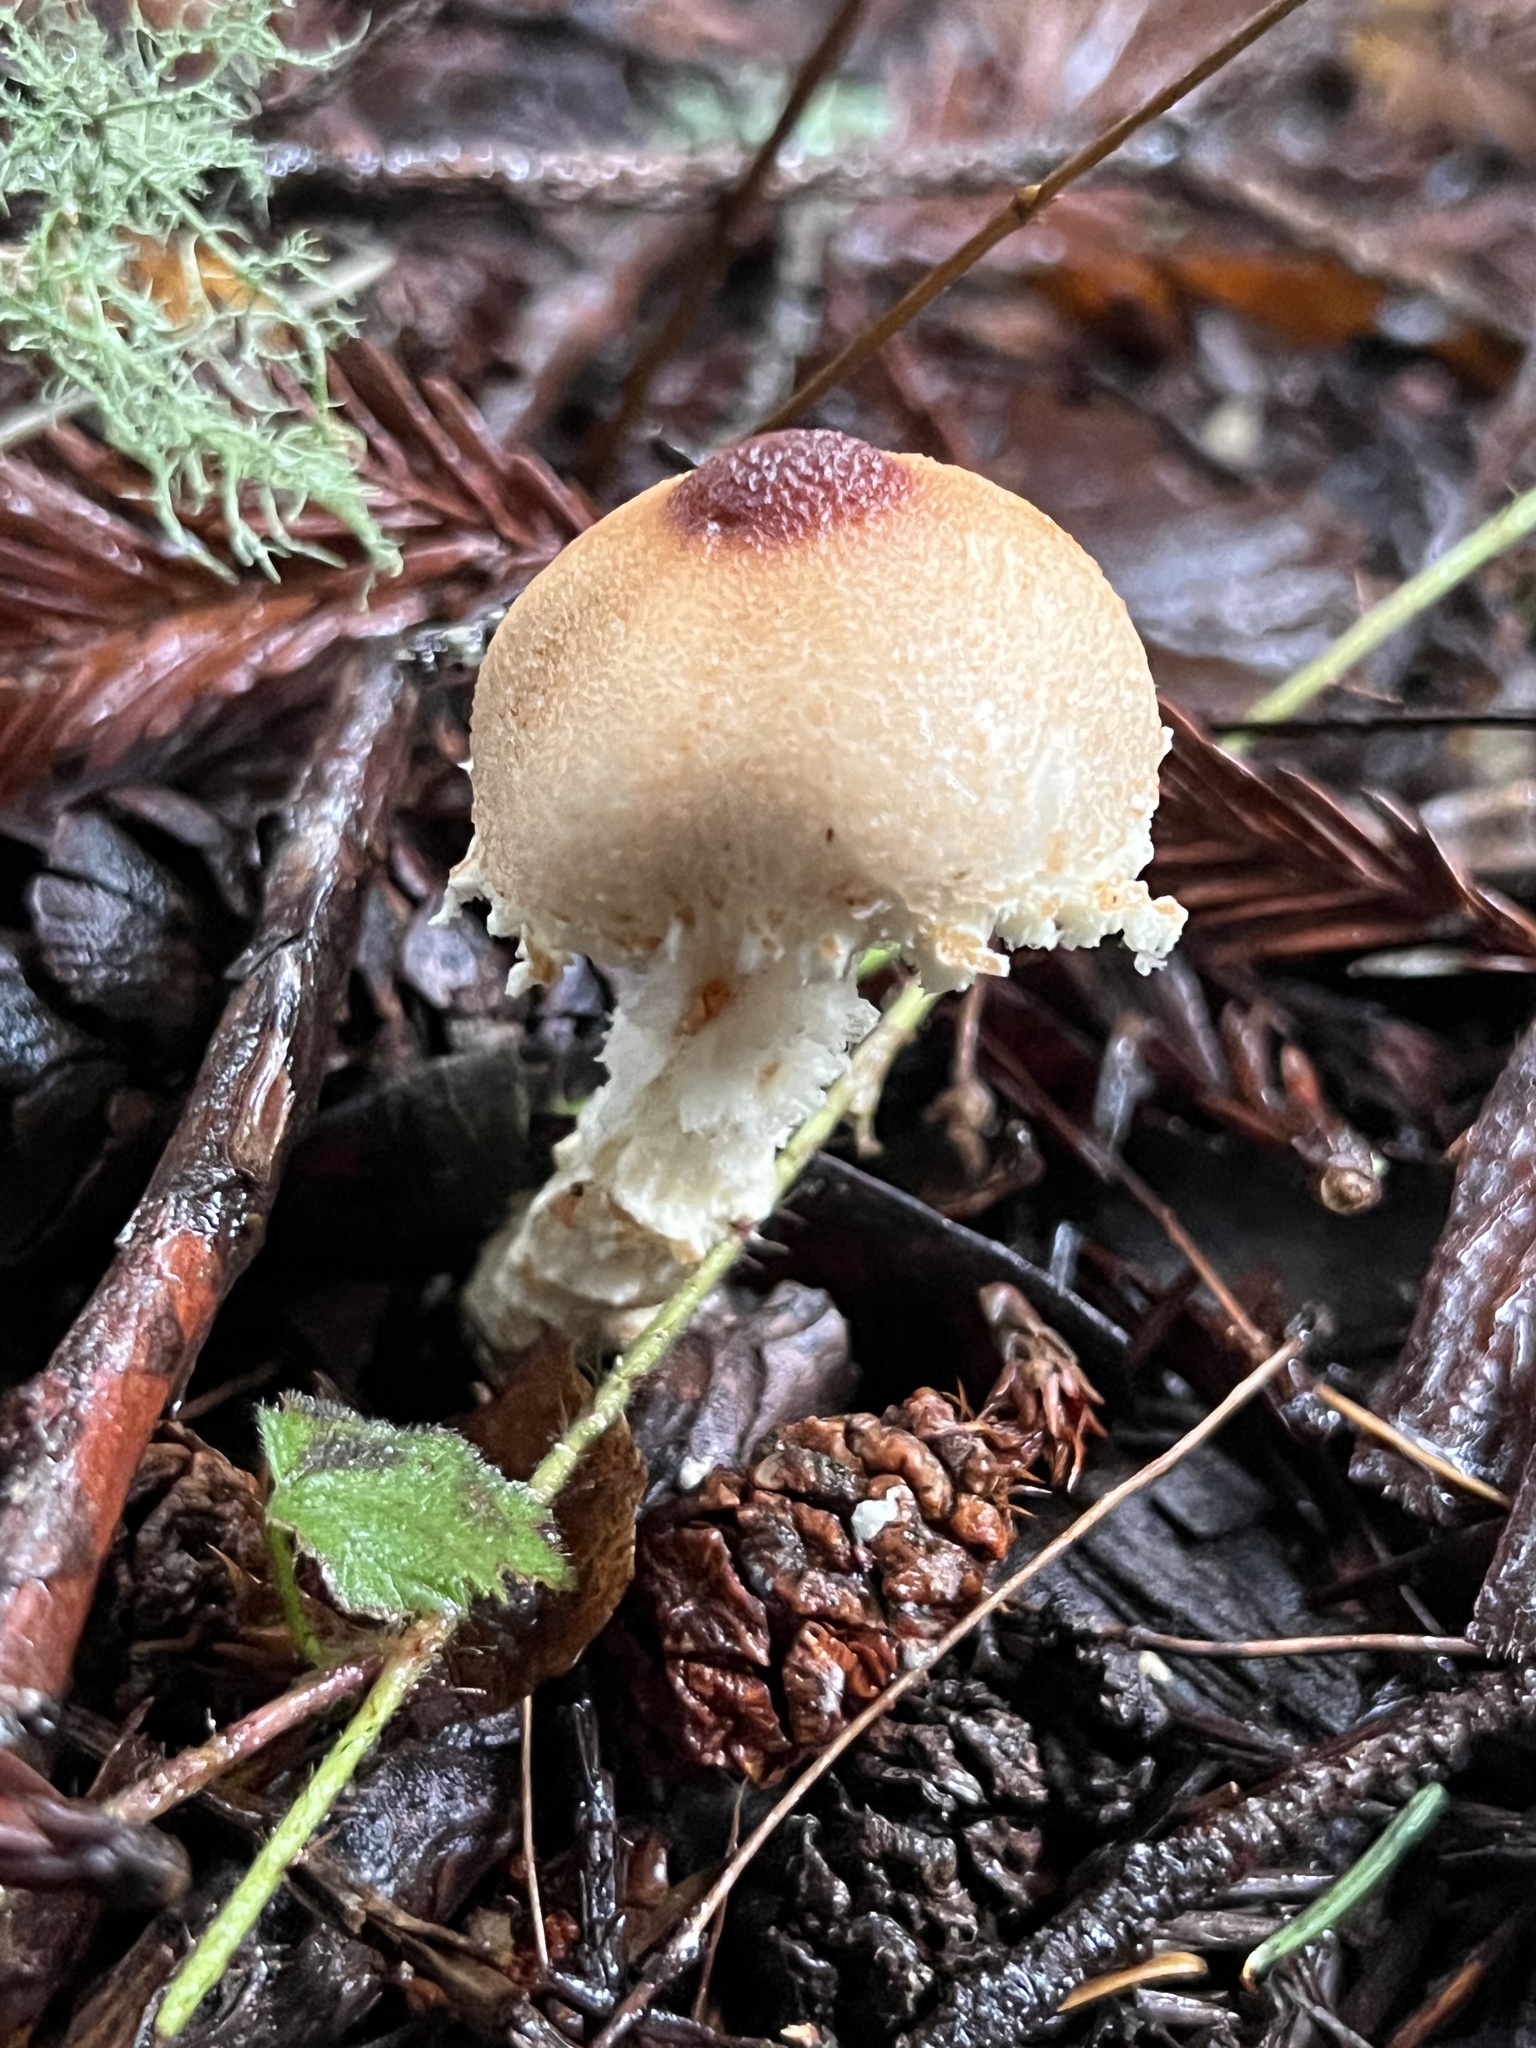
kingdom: Fungi
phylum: Basidiomycota
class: Agaricomycetes
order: Agaricales
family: Agaricaceae
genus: Lepiota
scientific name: Lepiota magnispora
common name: Yellowfoot dapperling
